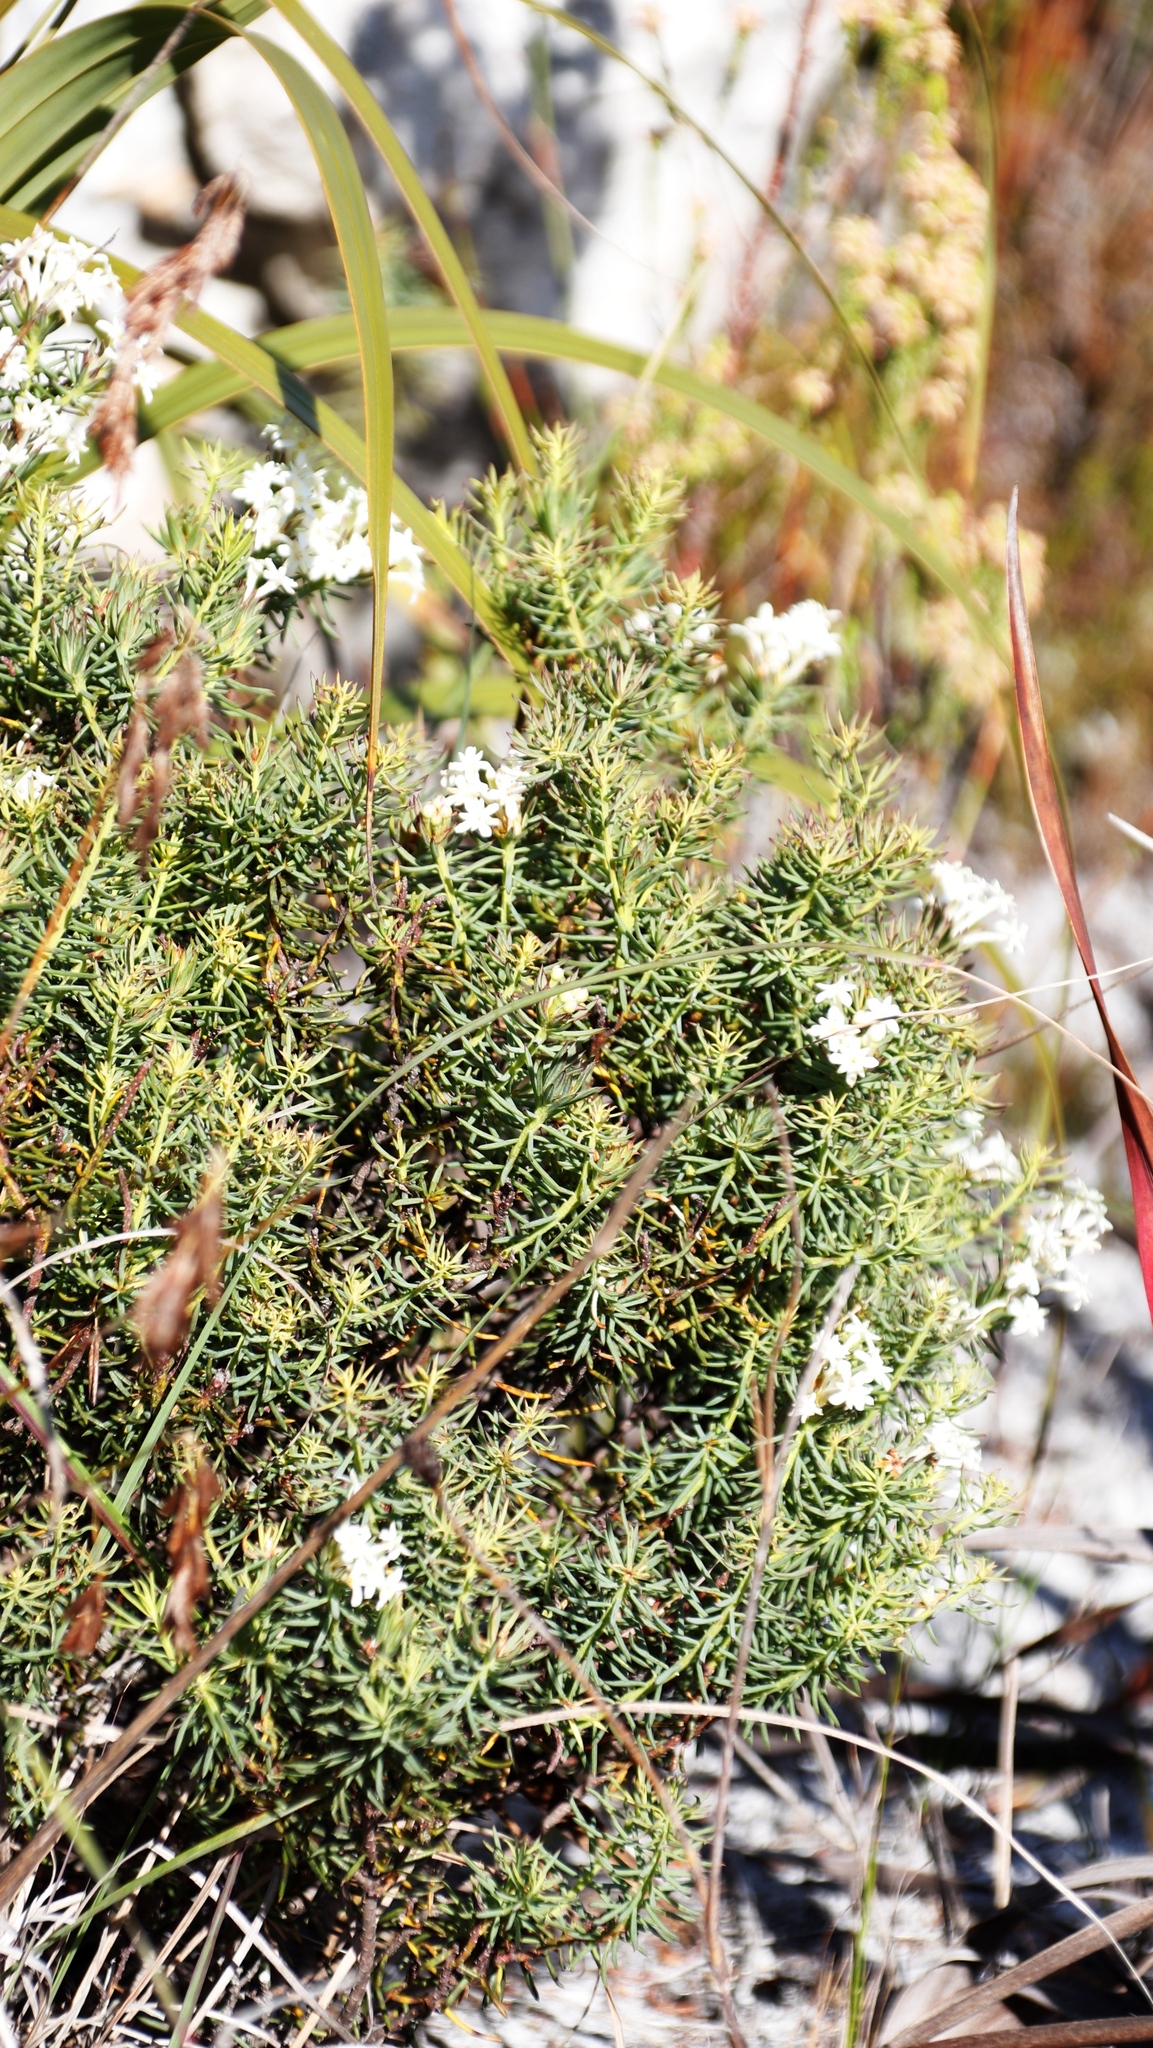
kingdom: Plantae
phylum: Tracheophyta
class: Magnoliopsida
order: Malvales
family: Thymelaeaceae
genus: Gnidia
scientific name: Gnidia pinifolia
